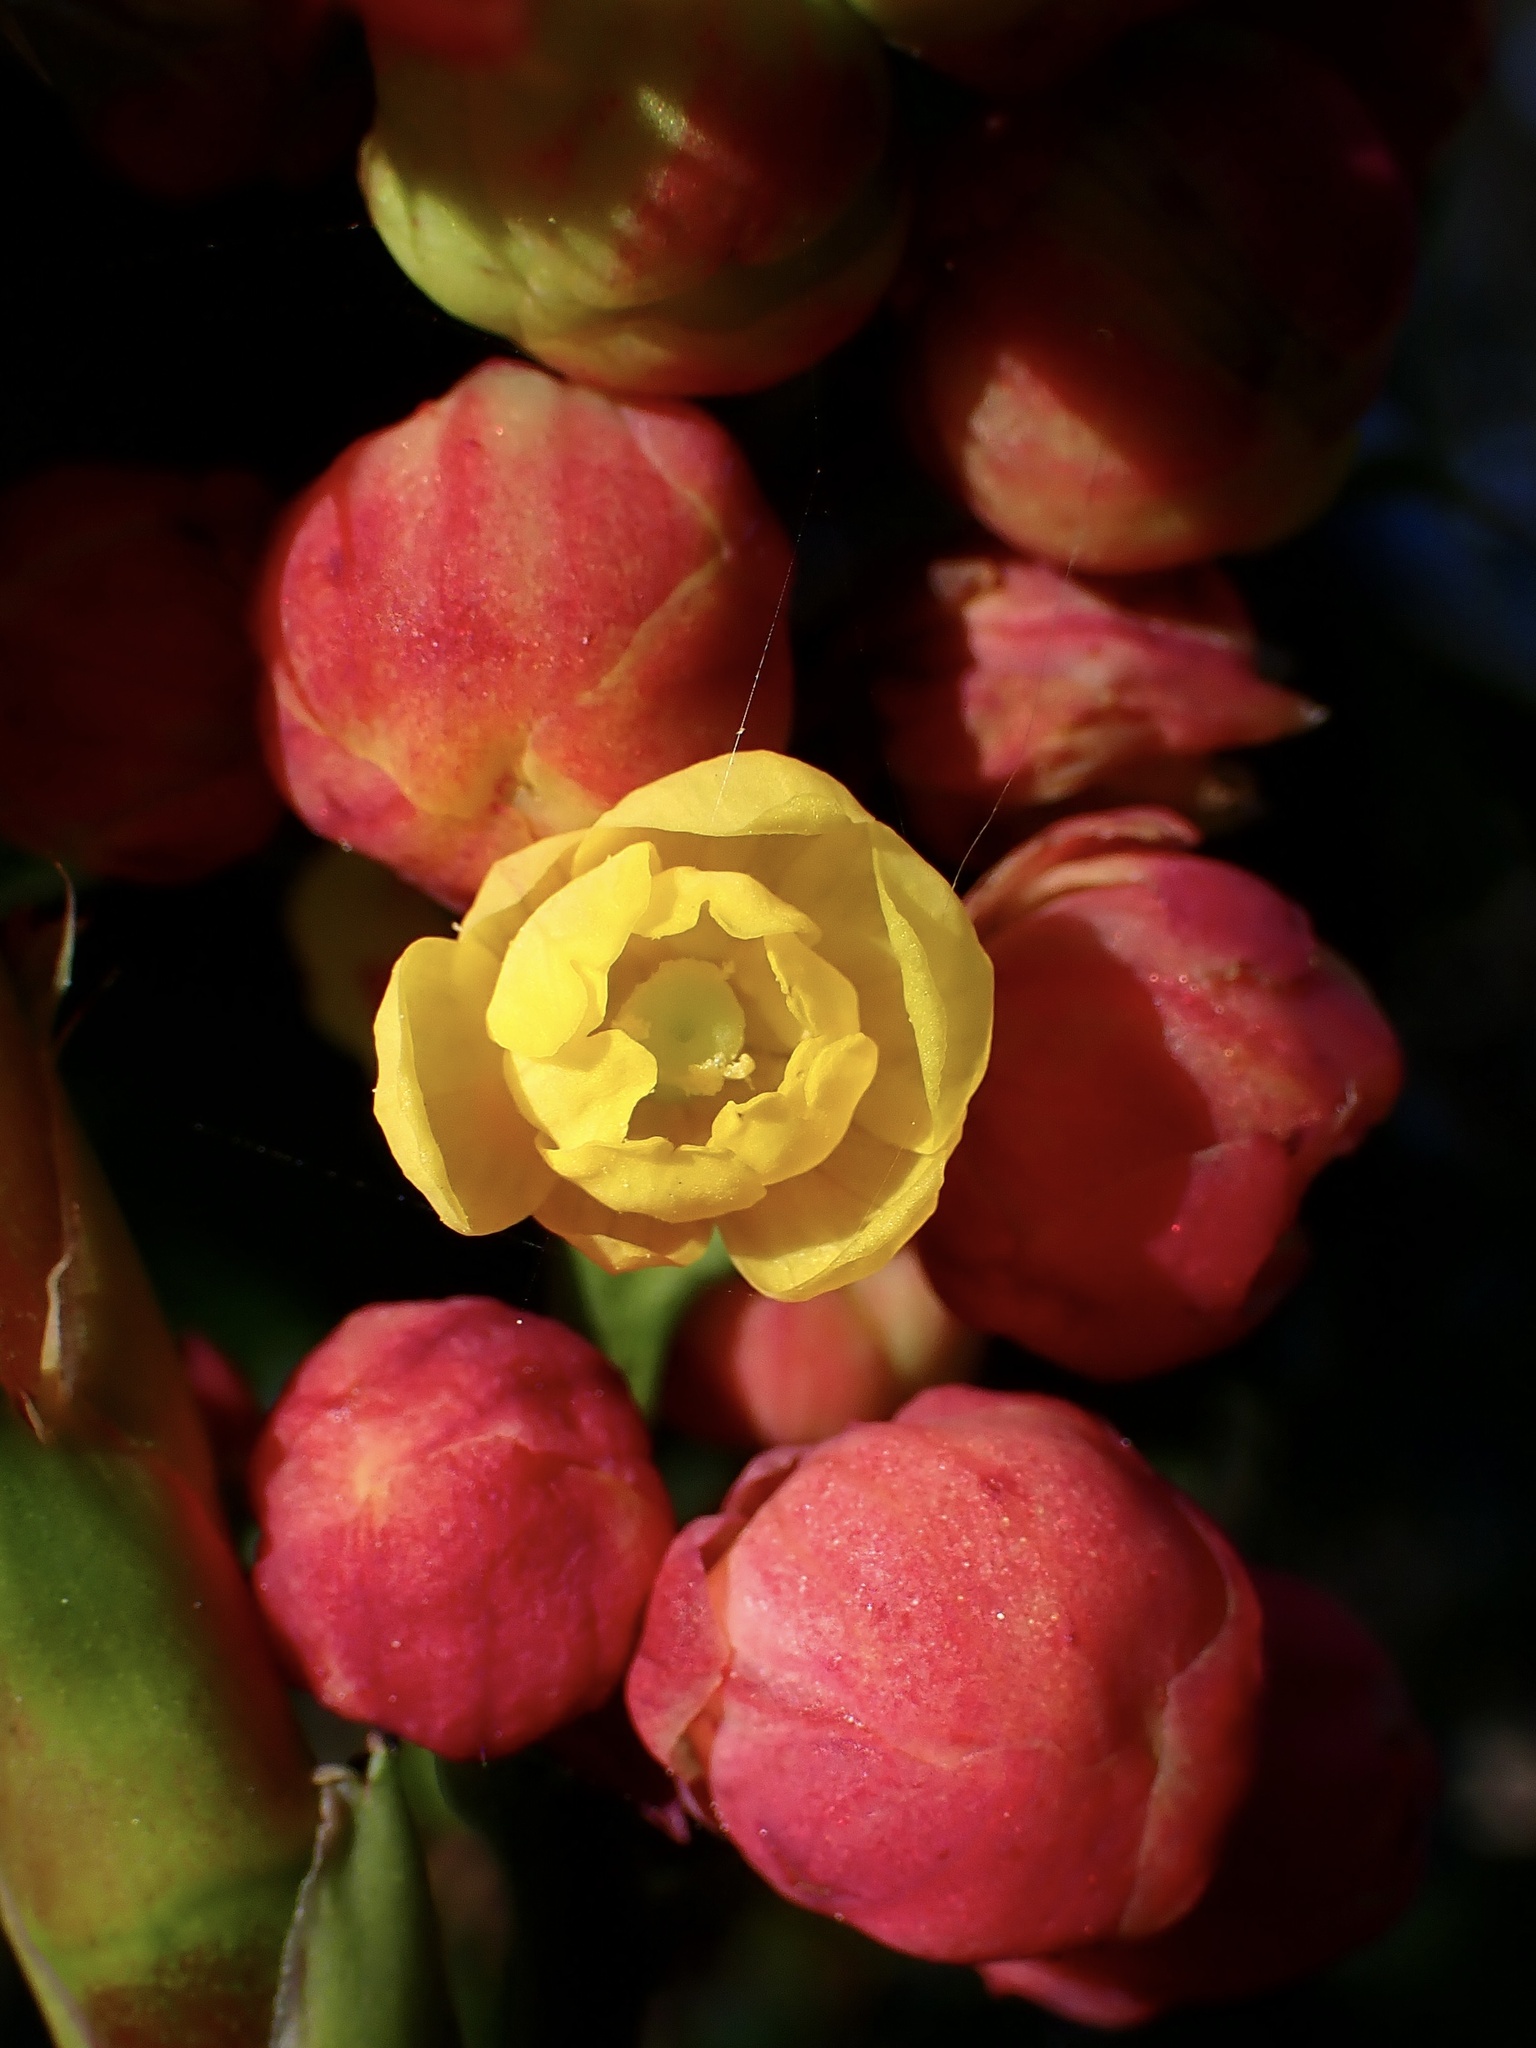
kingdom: Plantae
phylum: Tracheophyta
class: Magnoliopsida
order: Ranunculales
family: Berberidaceae
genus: Mahonia
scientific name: Mahonia
